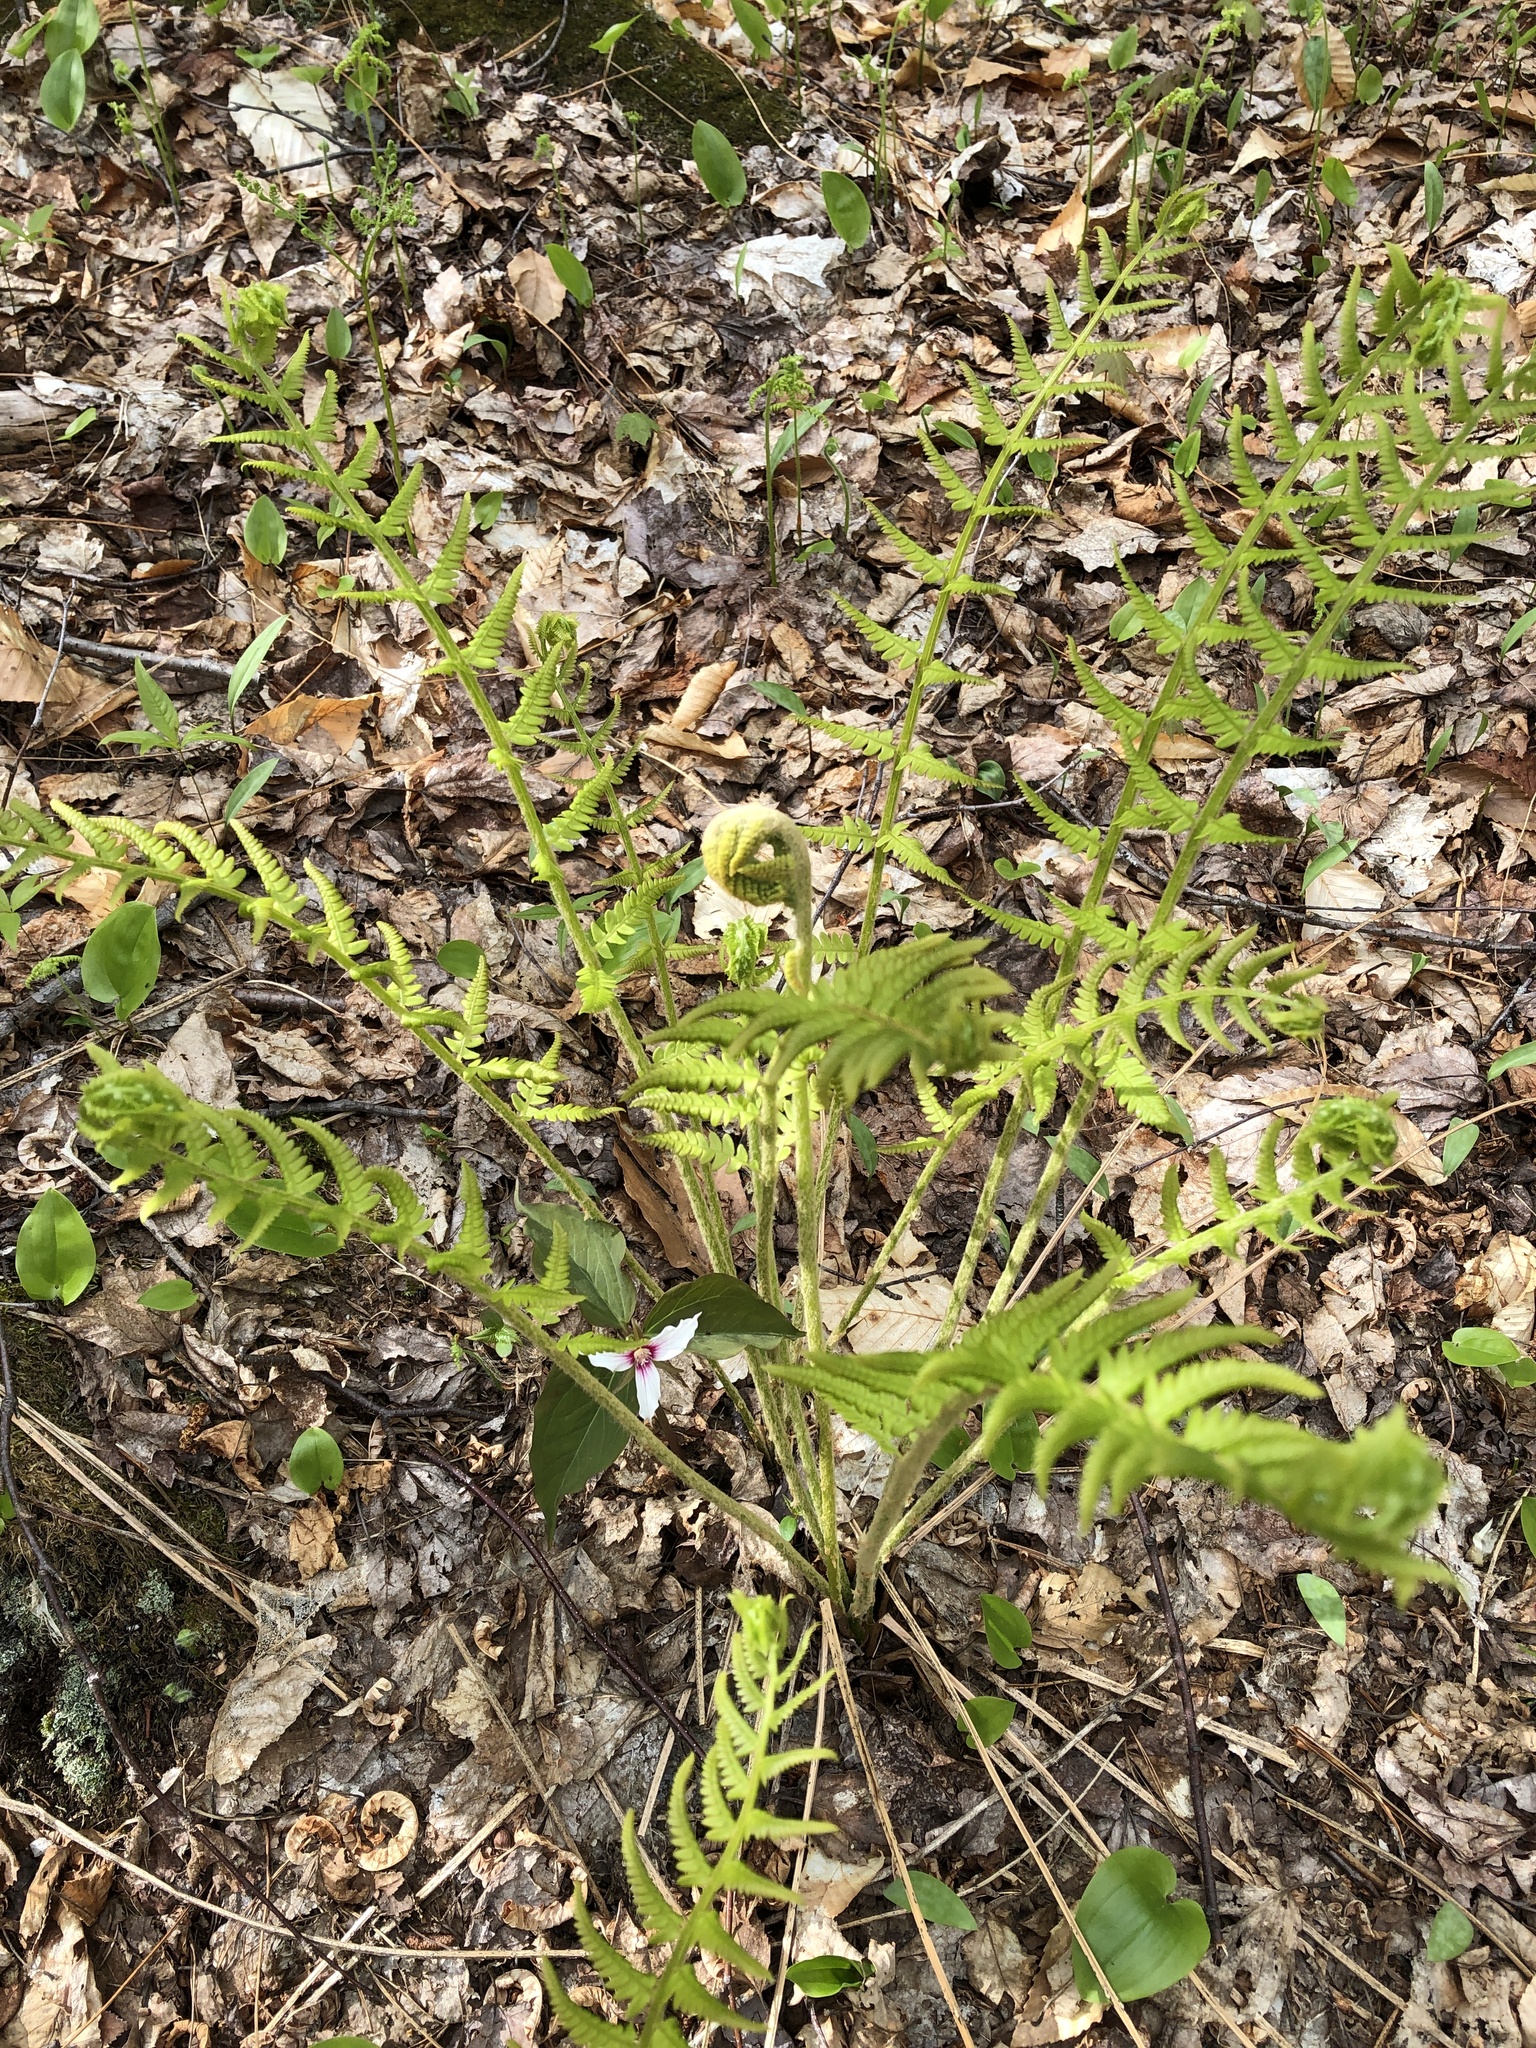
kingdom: Plantae
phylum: Tracheophyta
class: Polypodiopsida
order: Osmundales
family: Osmundaceae
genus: Osmundastrum
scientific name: Osmundastrum cinnamomeum
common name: Cinnamon fern
